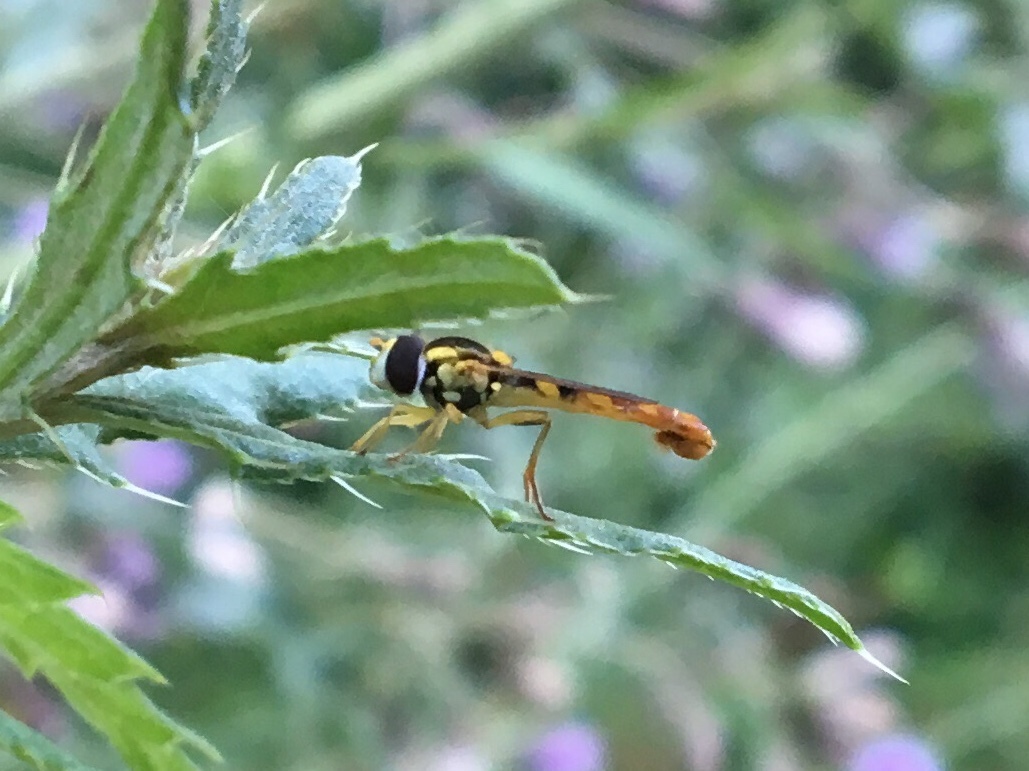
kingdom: Animalia
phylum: Arthropoda
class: Insecta
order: Diptera
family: Syrphidae
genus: Sphaerophoria
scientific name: Sphaerophoria scripta
